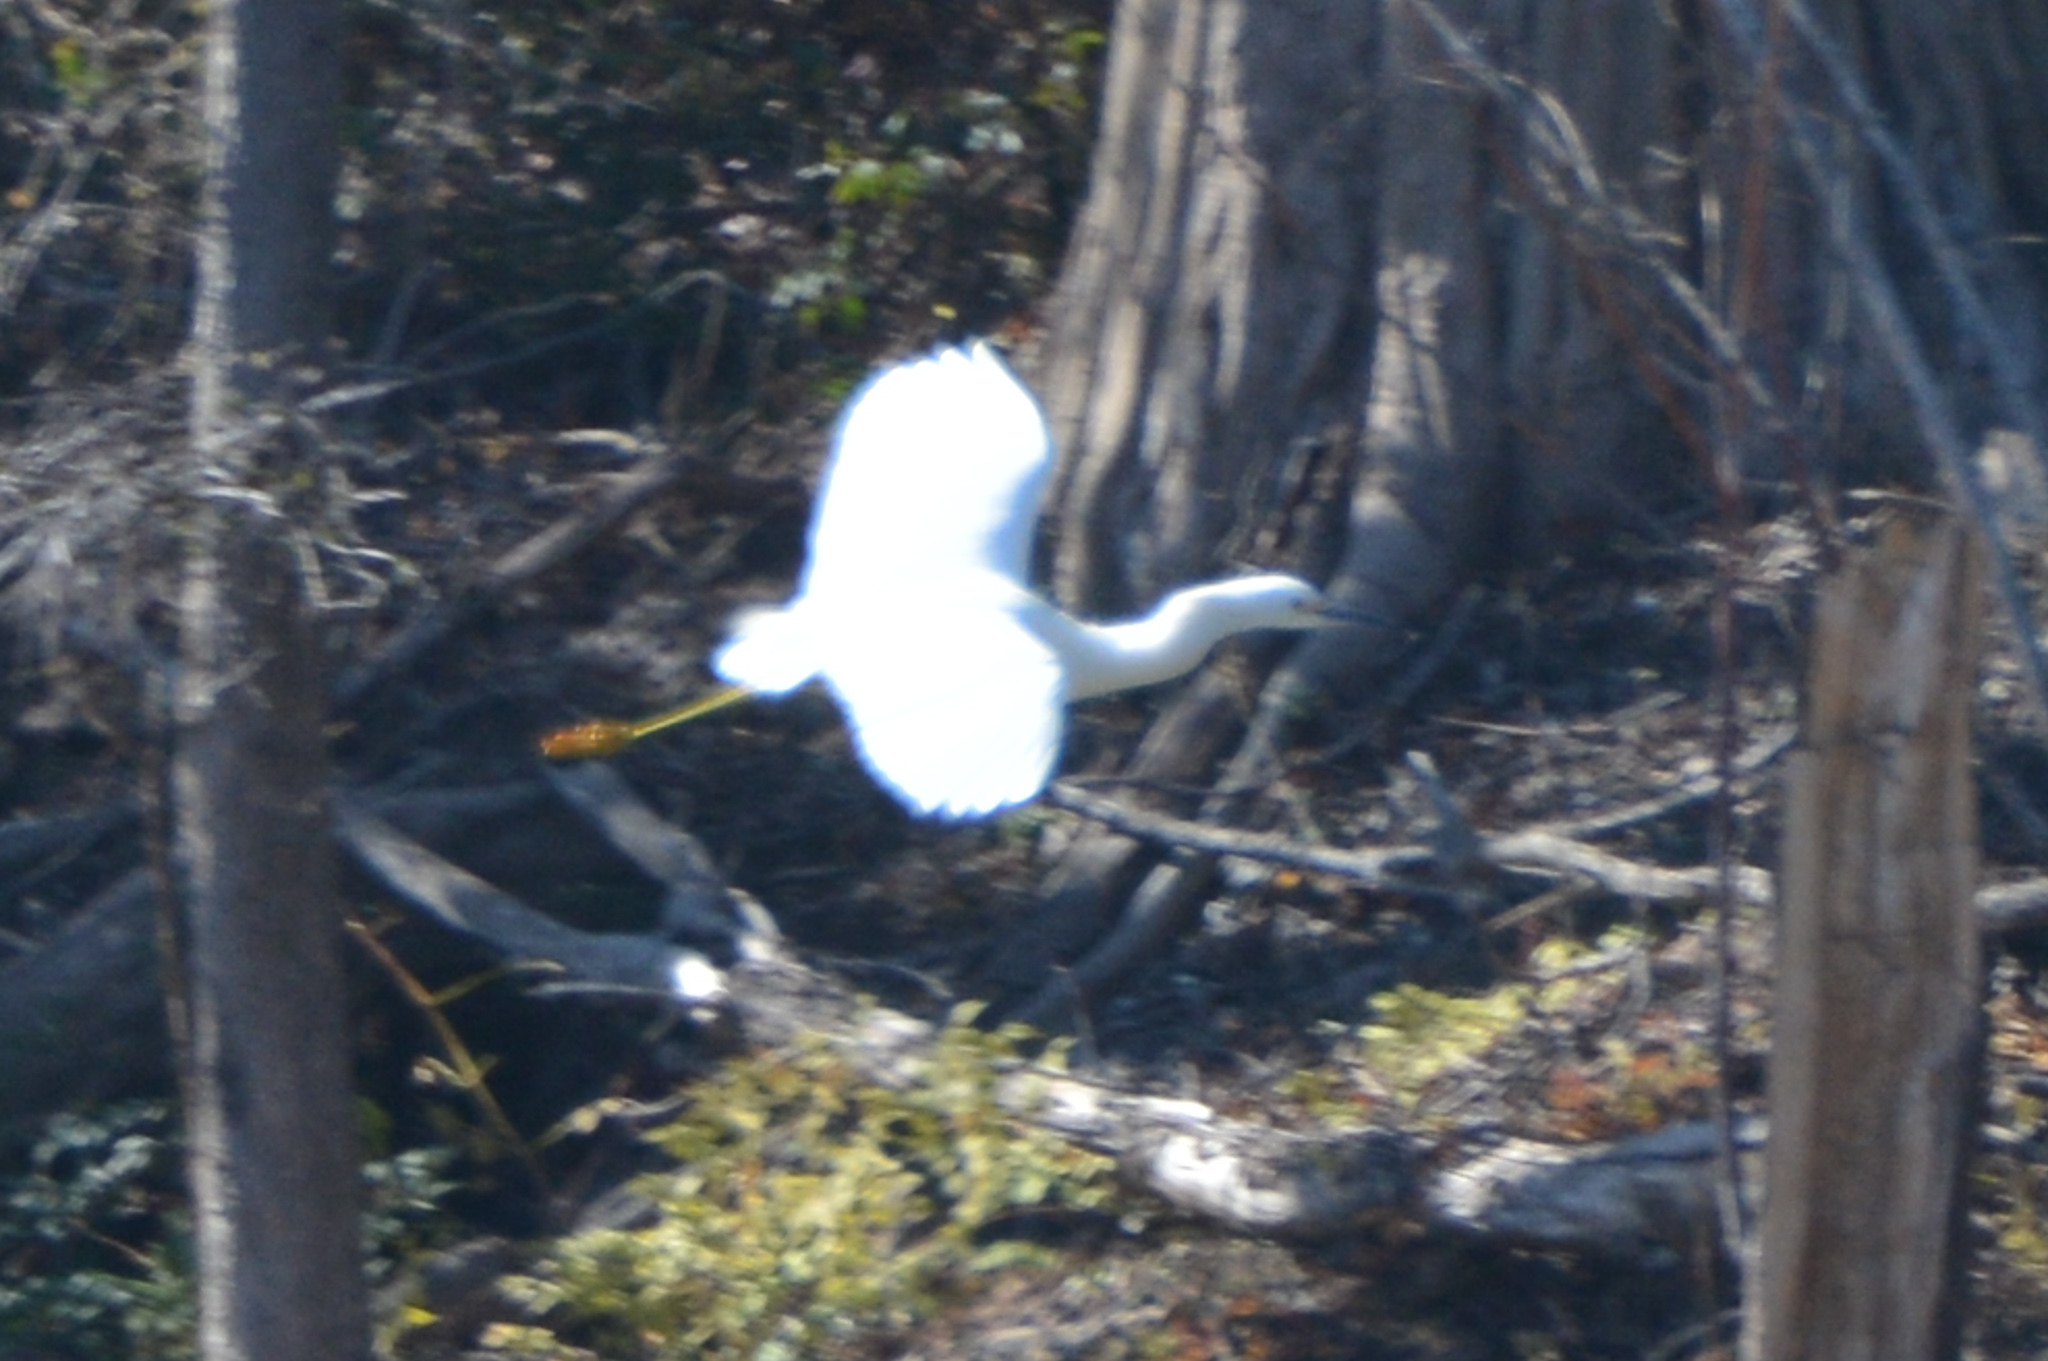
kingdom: Animalia
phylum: Chordata
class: Aves
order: Pelecaniformes
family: Ardeidae
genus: Egretta
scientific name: Egretta thula
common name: Snowy egret
